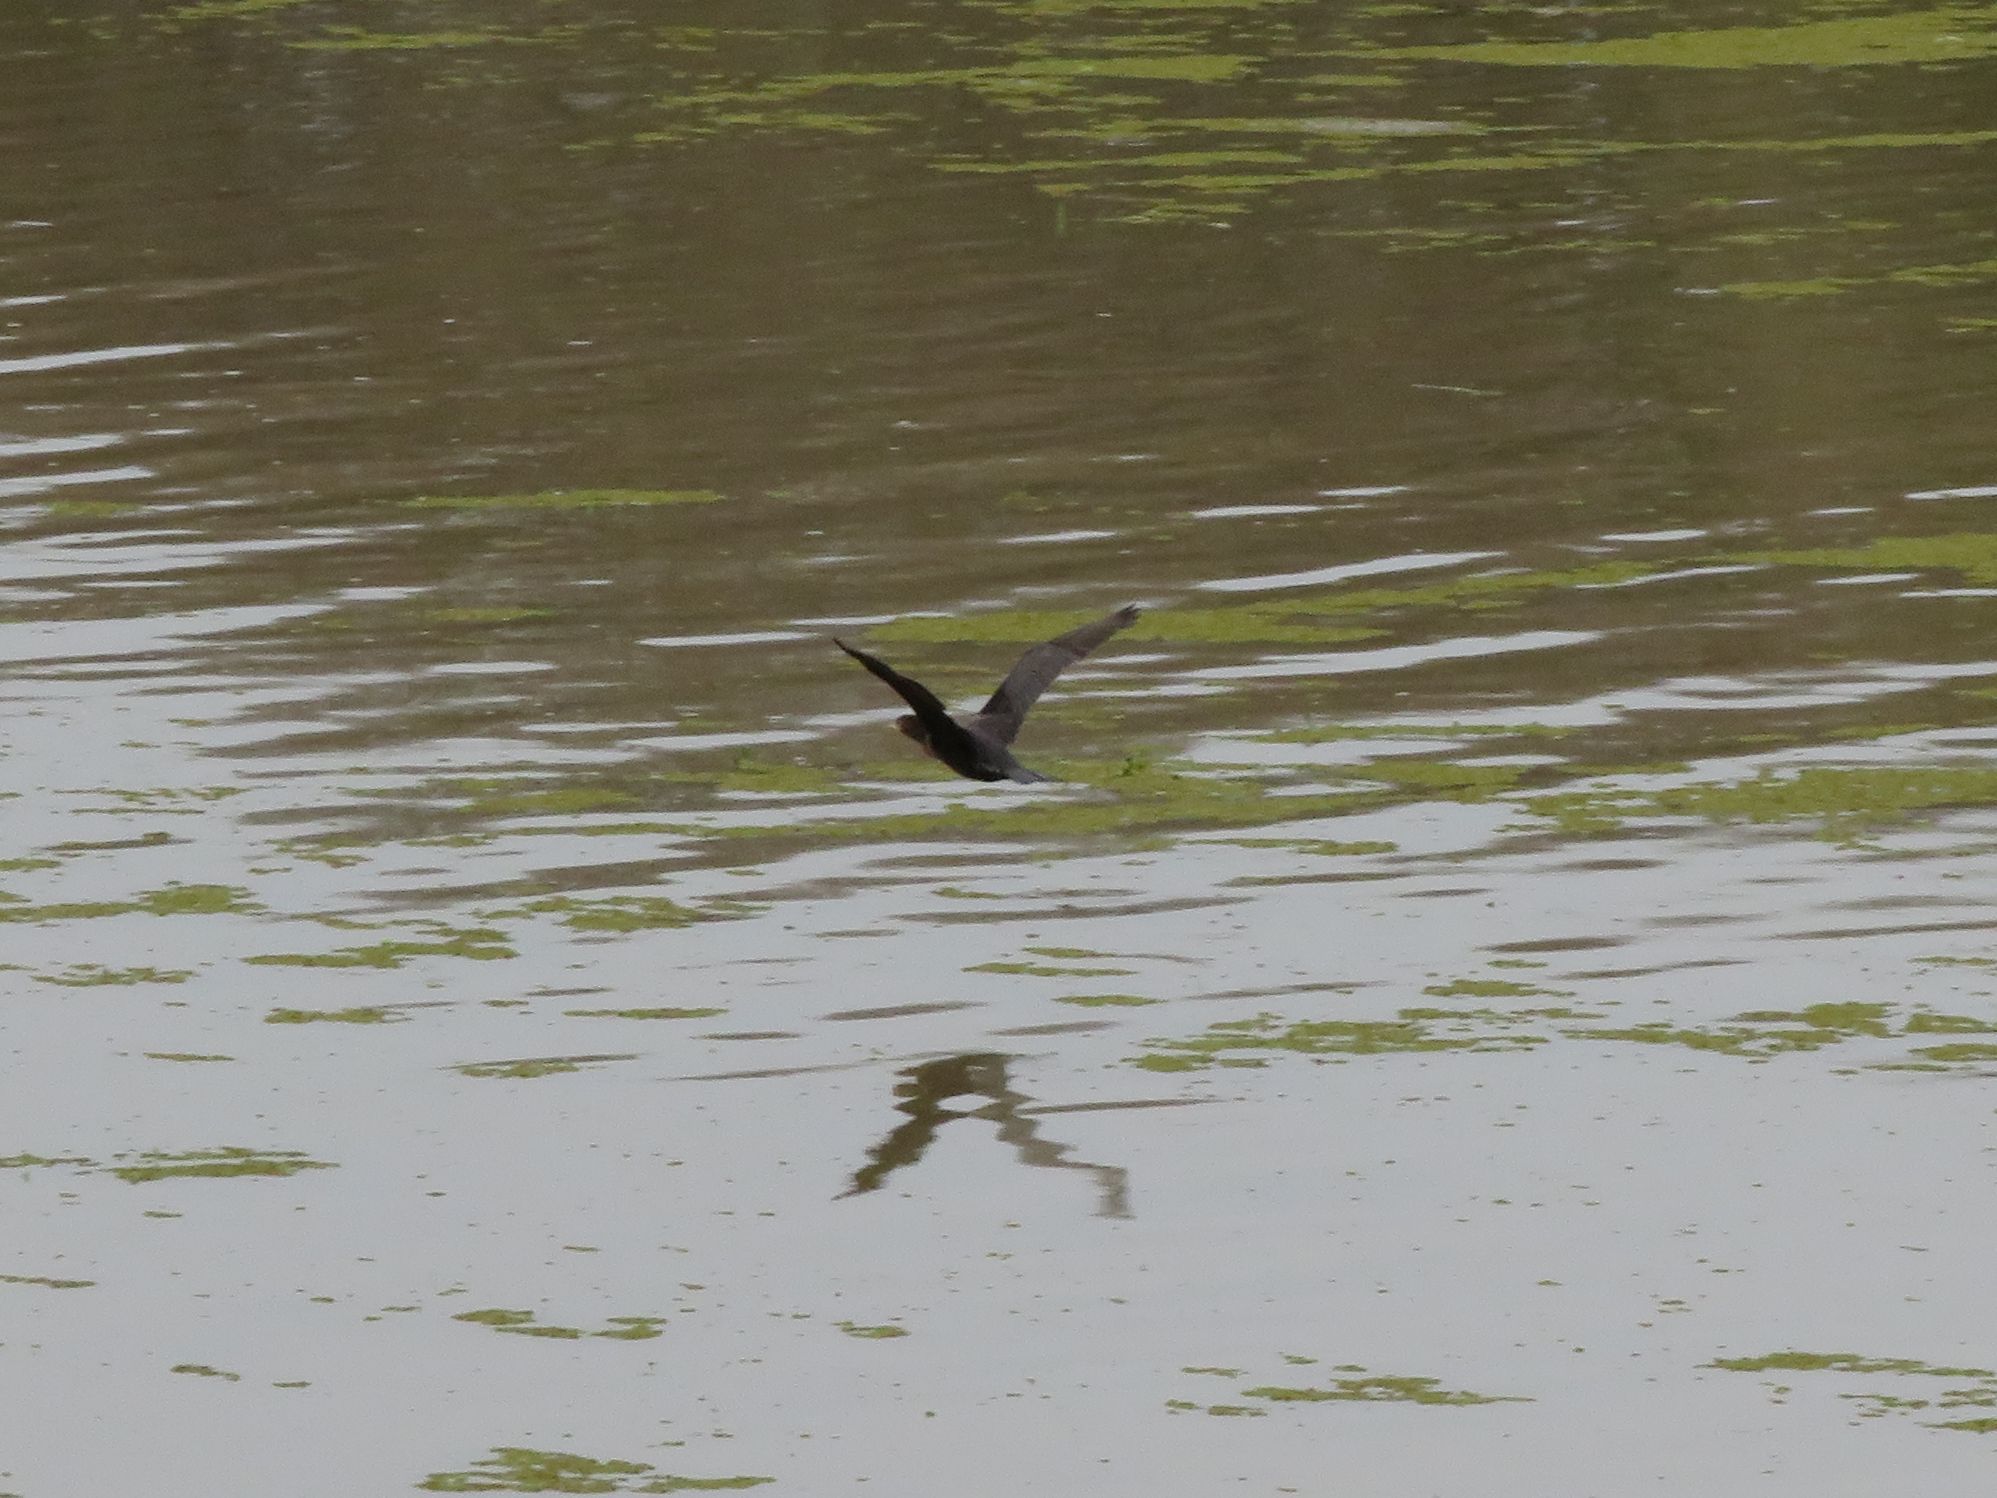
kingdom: Animalia
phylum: Chordata
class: Aves
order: Suliformes
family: Phalacrocoracidae
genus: Phalacrocorax
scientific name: Phalacrocorax brasilianus
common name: Neotropic cormorant
